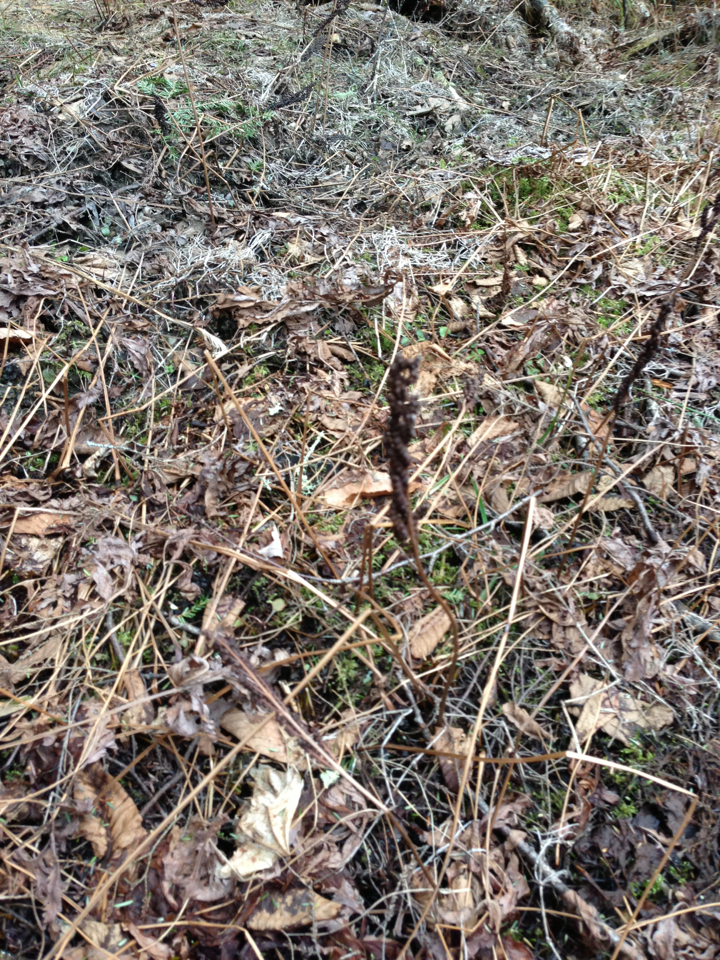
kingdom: Plantae
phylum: Tracheophyta
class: Polypodiopsida
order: Polypodiales
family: Onocleaceae
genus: Onoclea
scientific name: Onoclea sensibilis
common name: Sensitive fern
